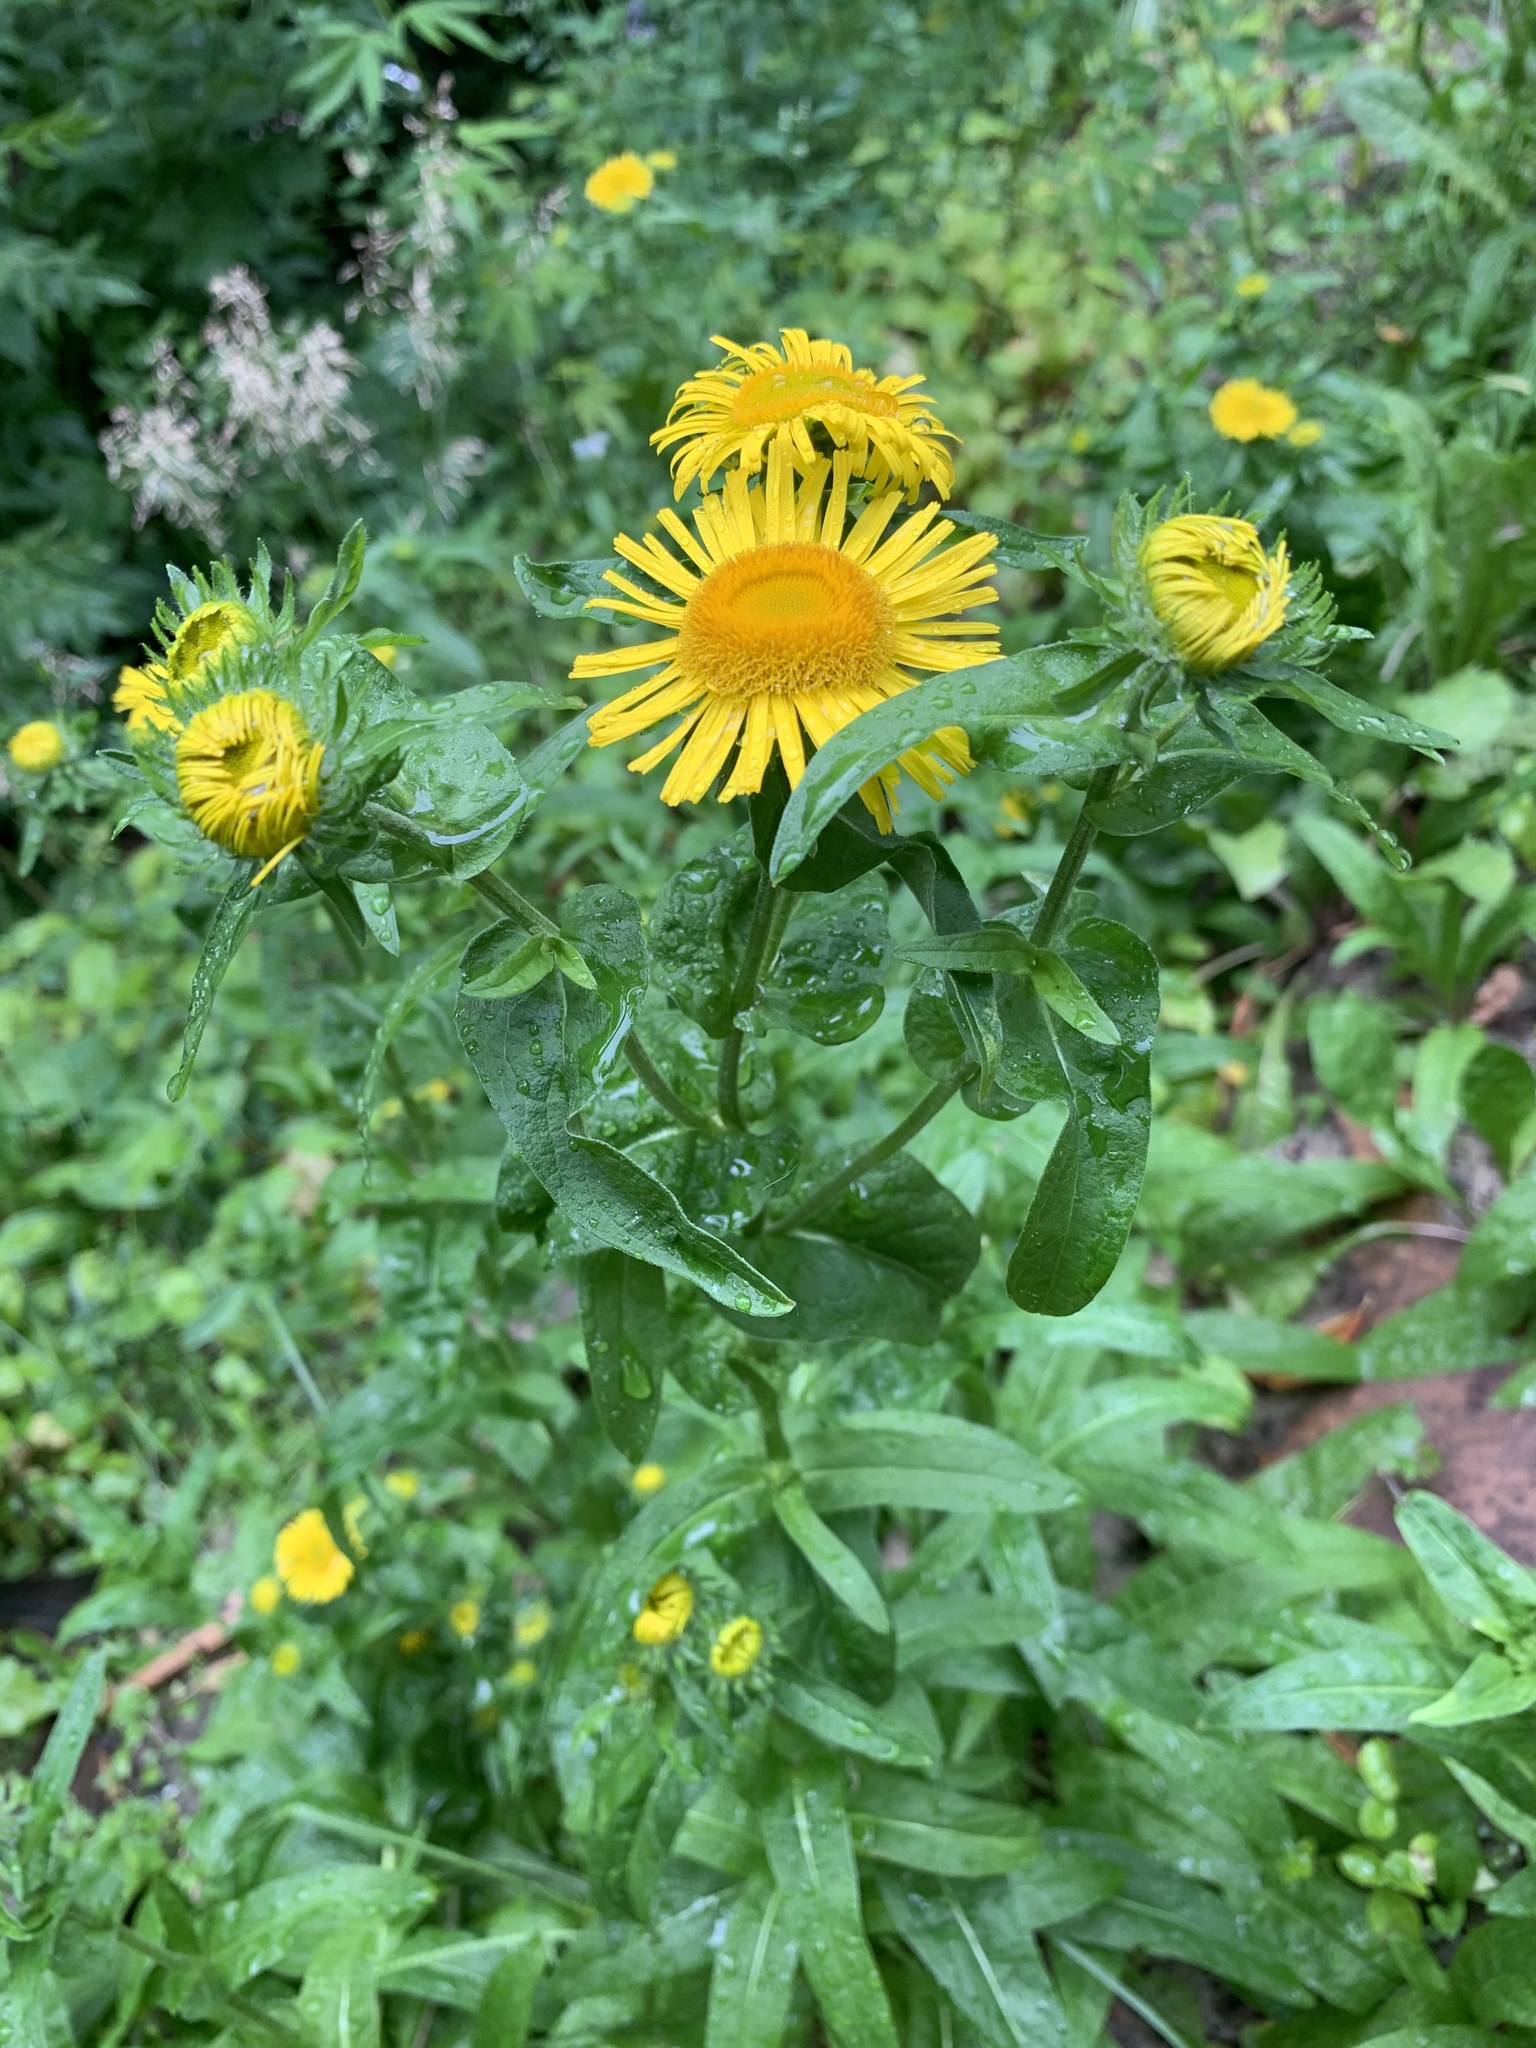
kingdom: Plantae
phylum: Tracheophyta
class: Magnoliopsida
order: Asterales
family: Asteraceae
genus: Pentanema
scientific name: Pentanema britannicum
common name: British elecampane
